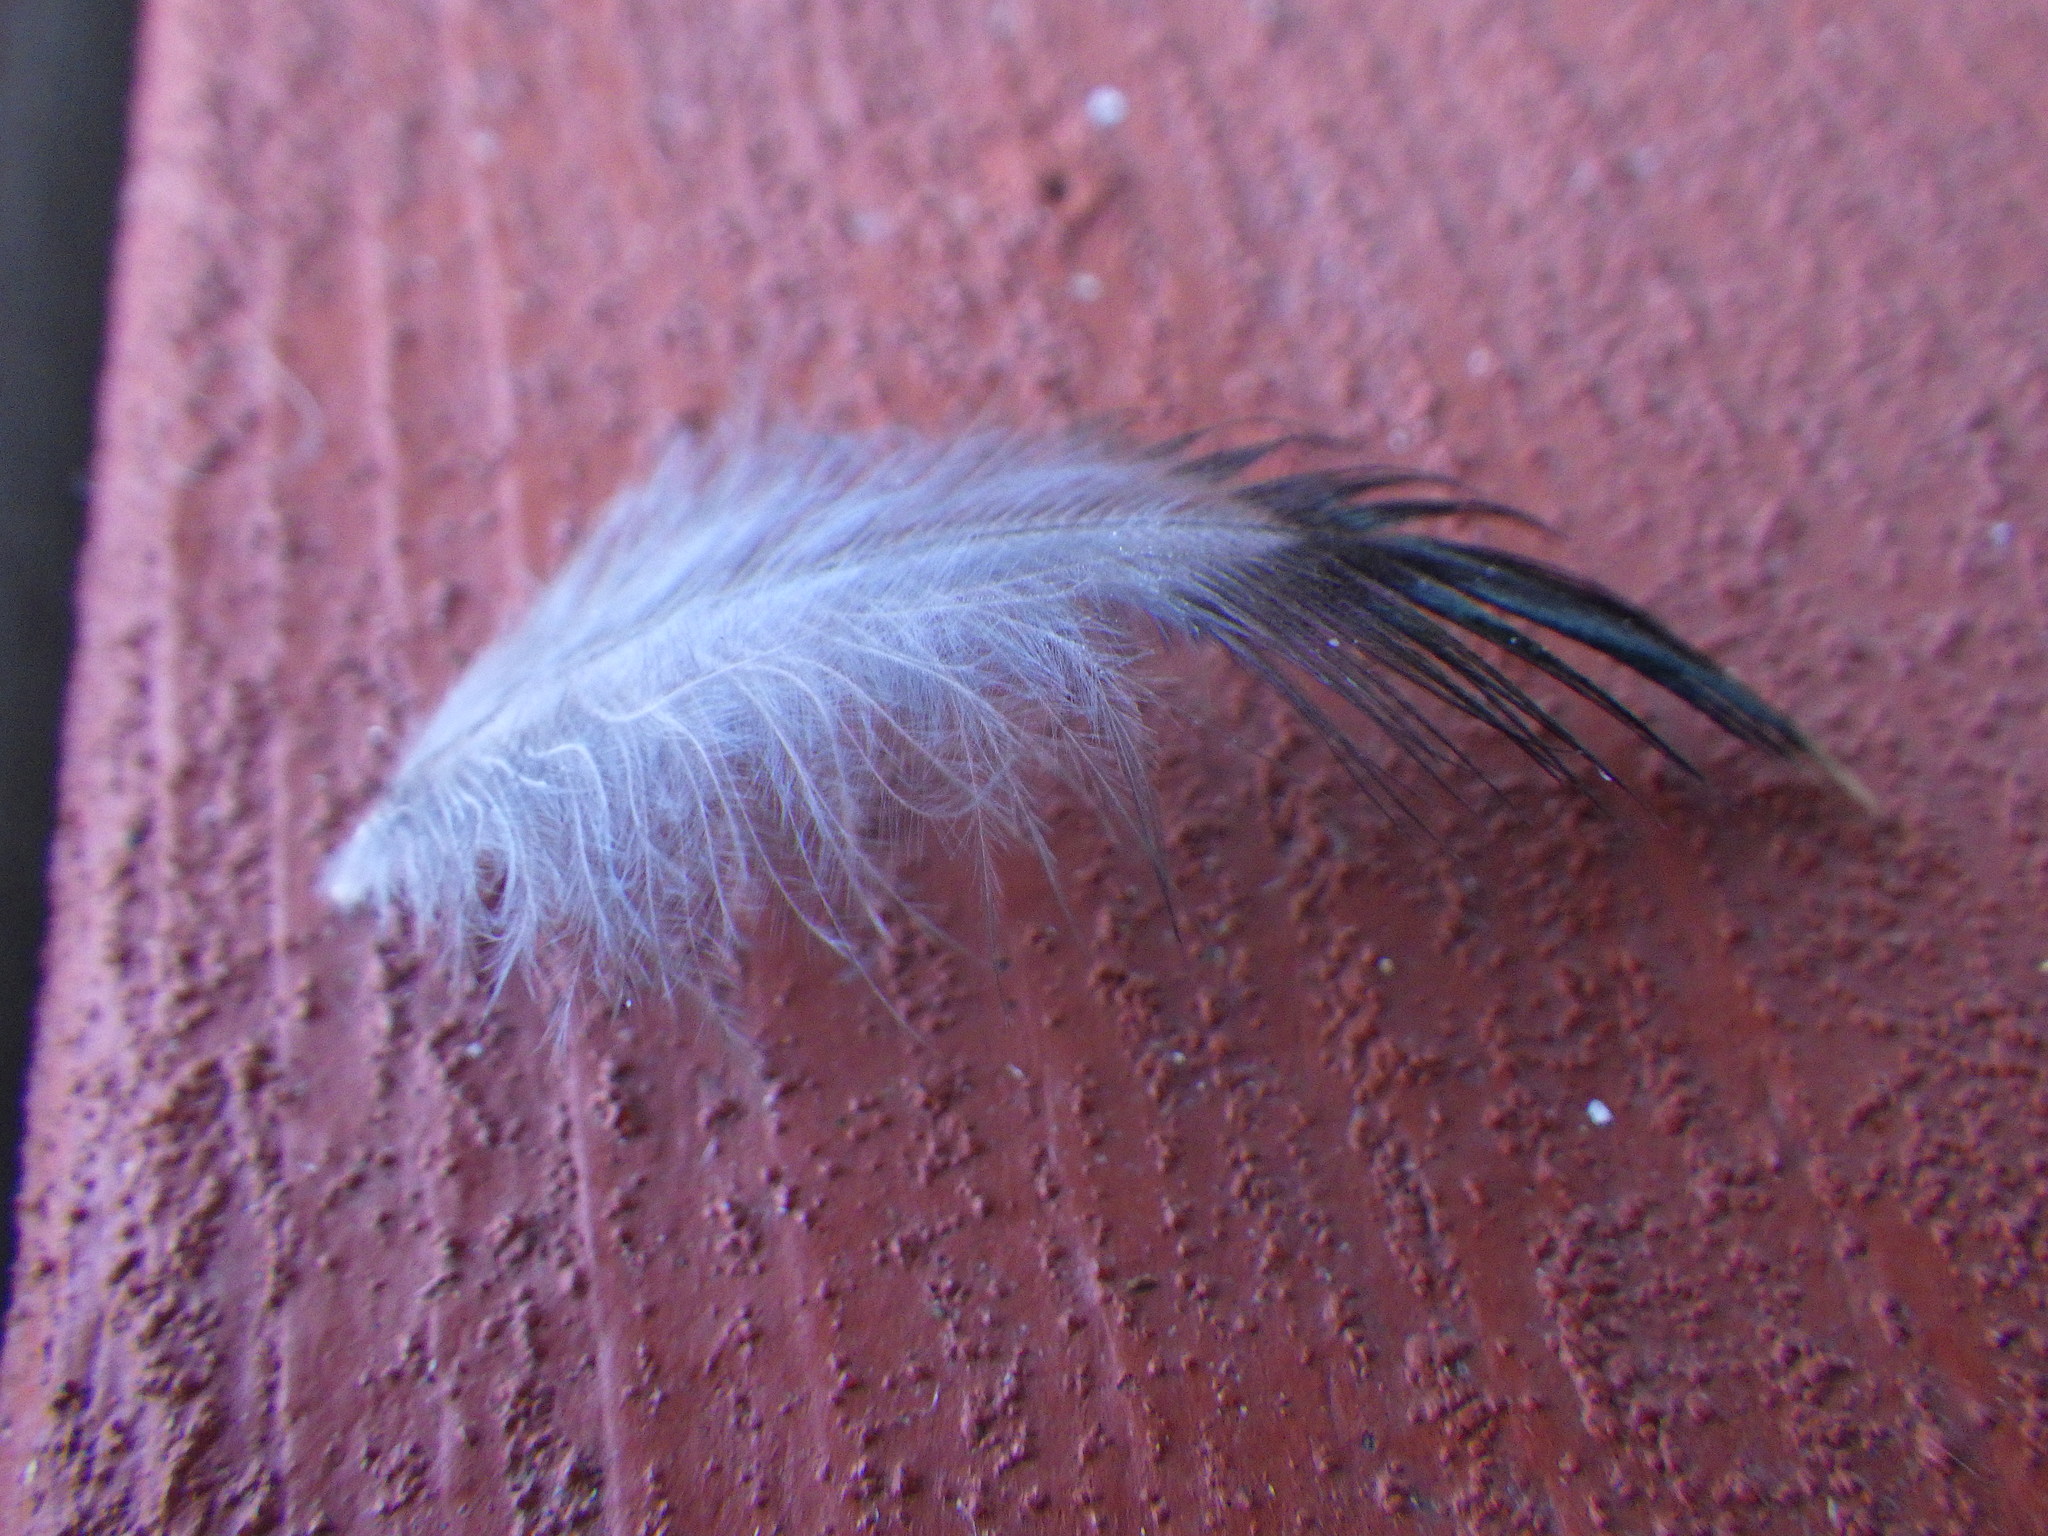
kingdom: Animalia
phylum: Chordata
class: Aves
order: Passeriformes
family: Sturnidae
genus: Sturnus
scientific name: Sturnus vulgaris
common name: Common starling
